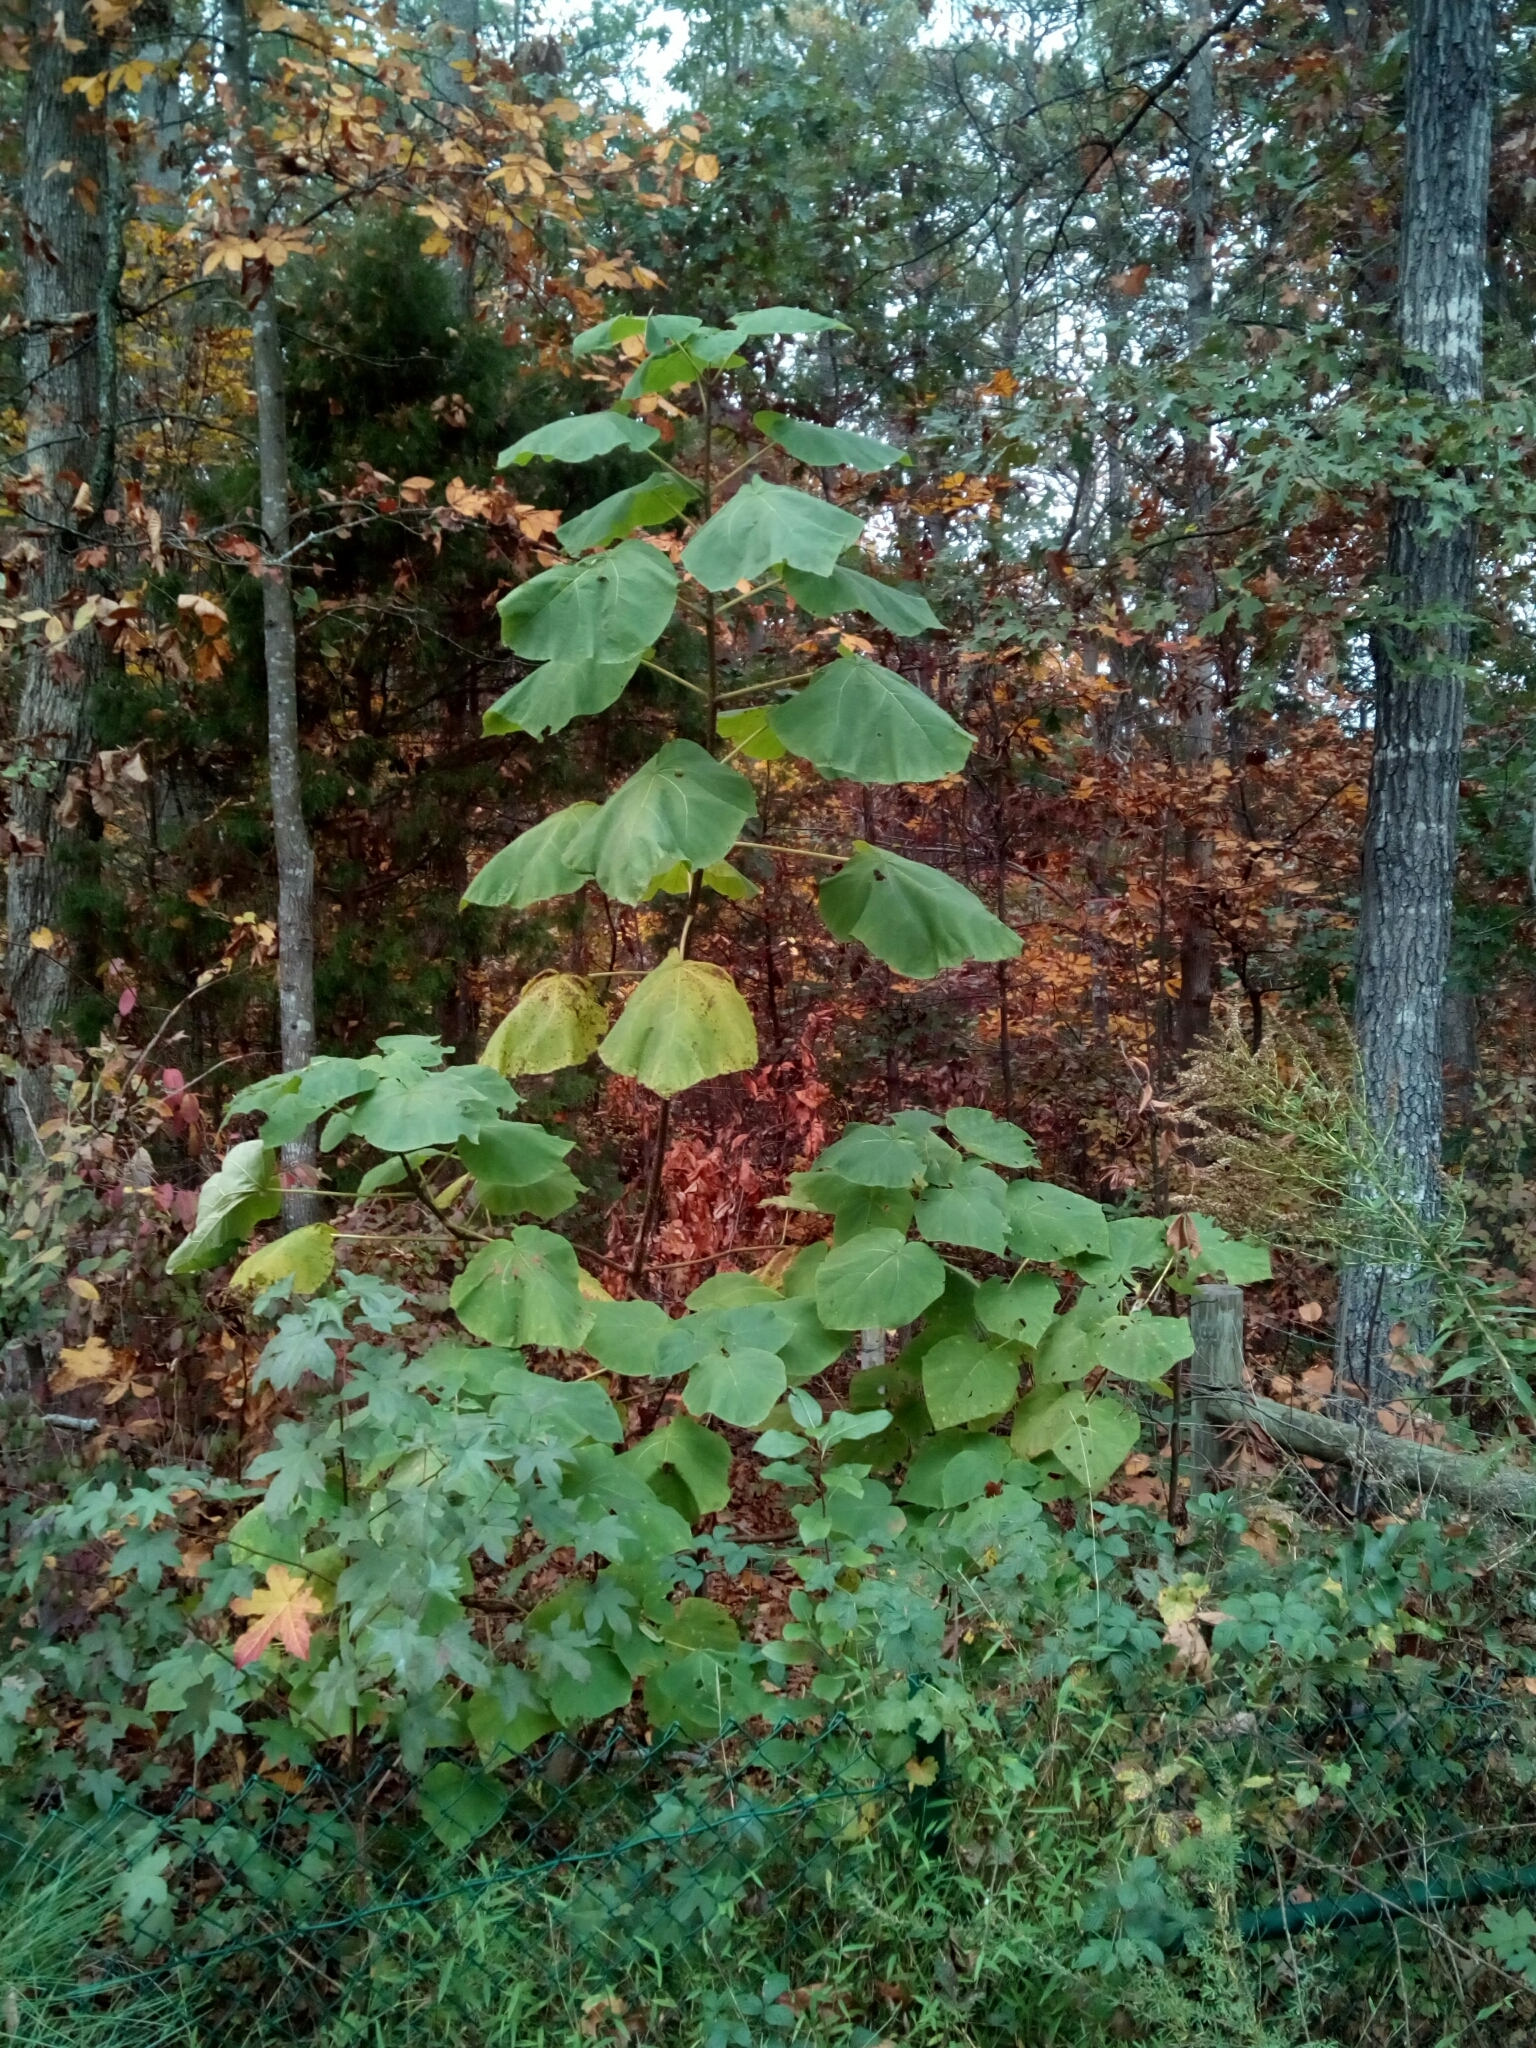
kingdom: Plantae
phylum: Tracheophyta
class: Magnoliopsida
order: Lamiales
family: Paulowniaceae
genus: Paulownia
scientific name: Paulownia tomentosa
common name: Foxglove-tree
